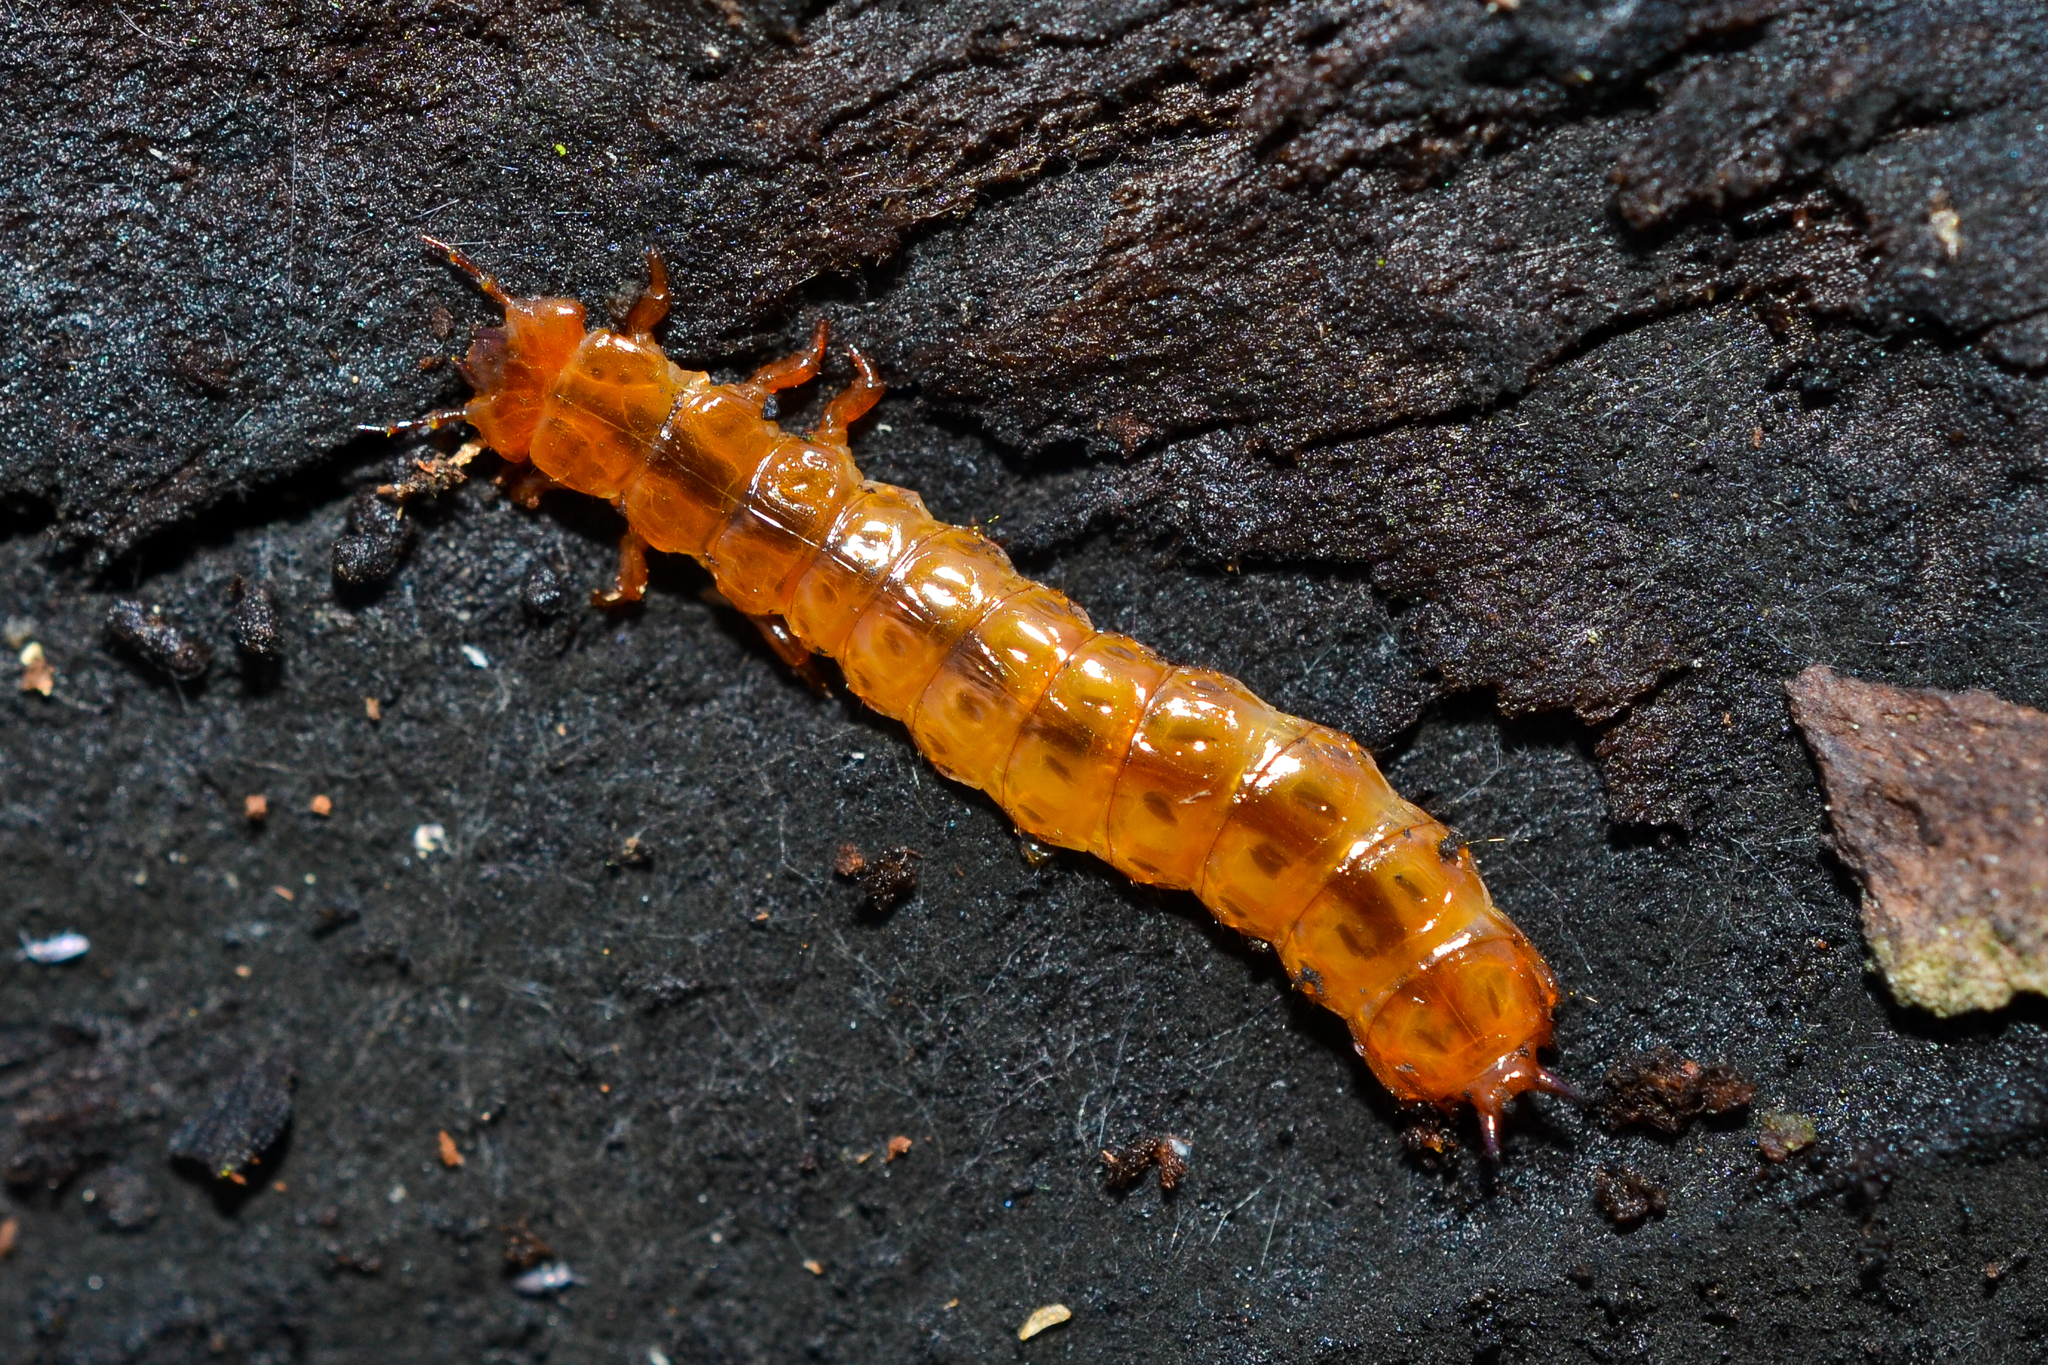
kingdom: Animalia
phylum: Arthropoda
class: Insecta
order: Coleoptera
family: Cucujidae
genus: Cucujus
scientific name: Cucujus clavipes
